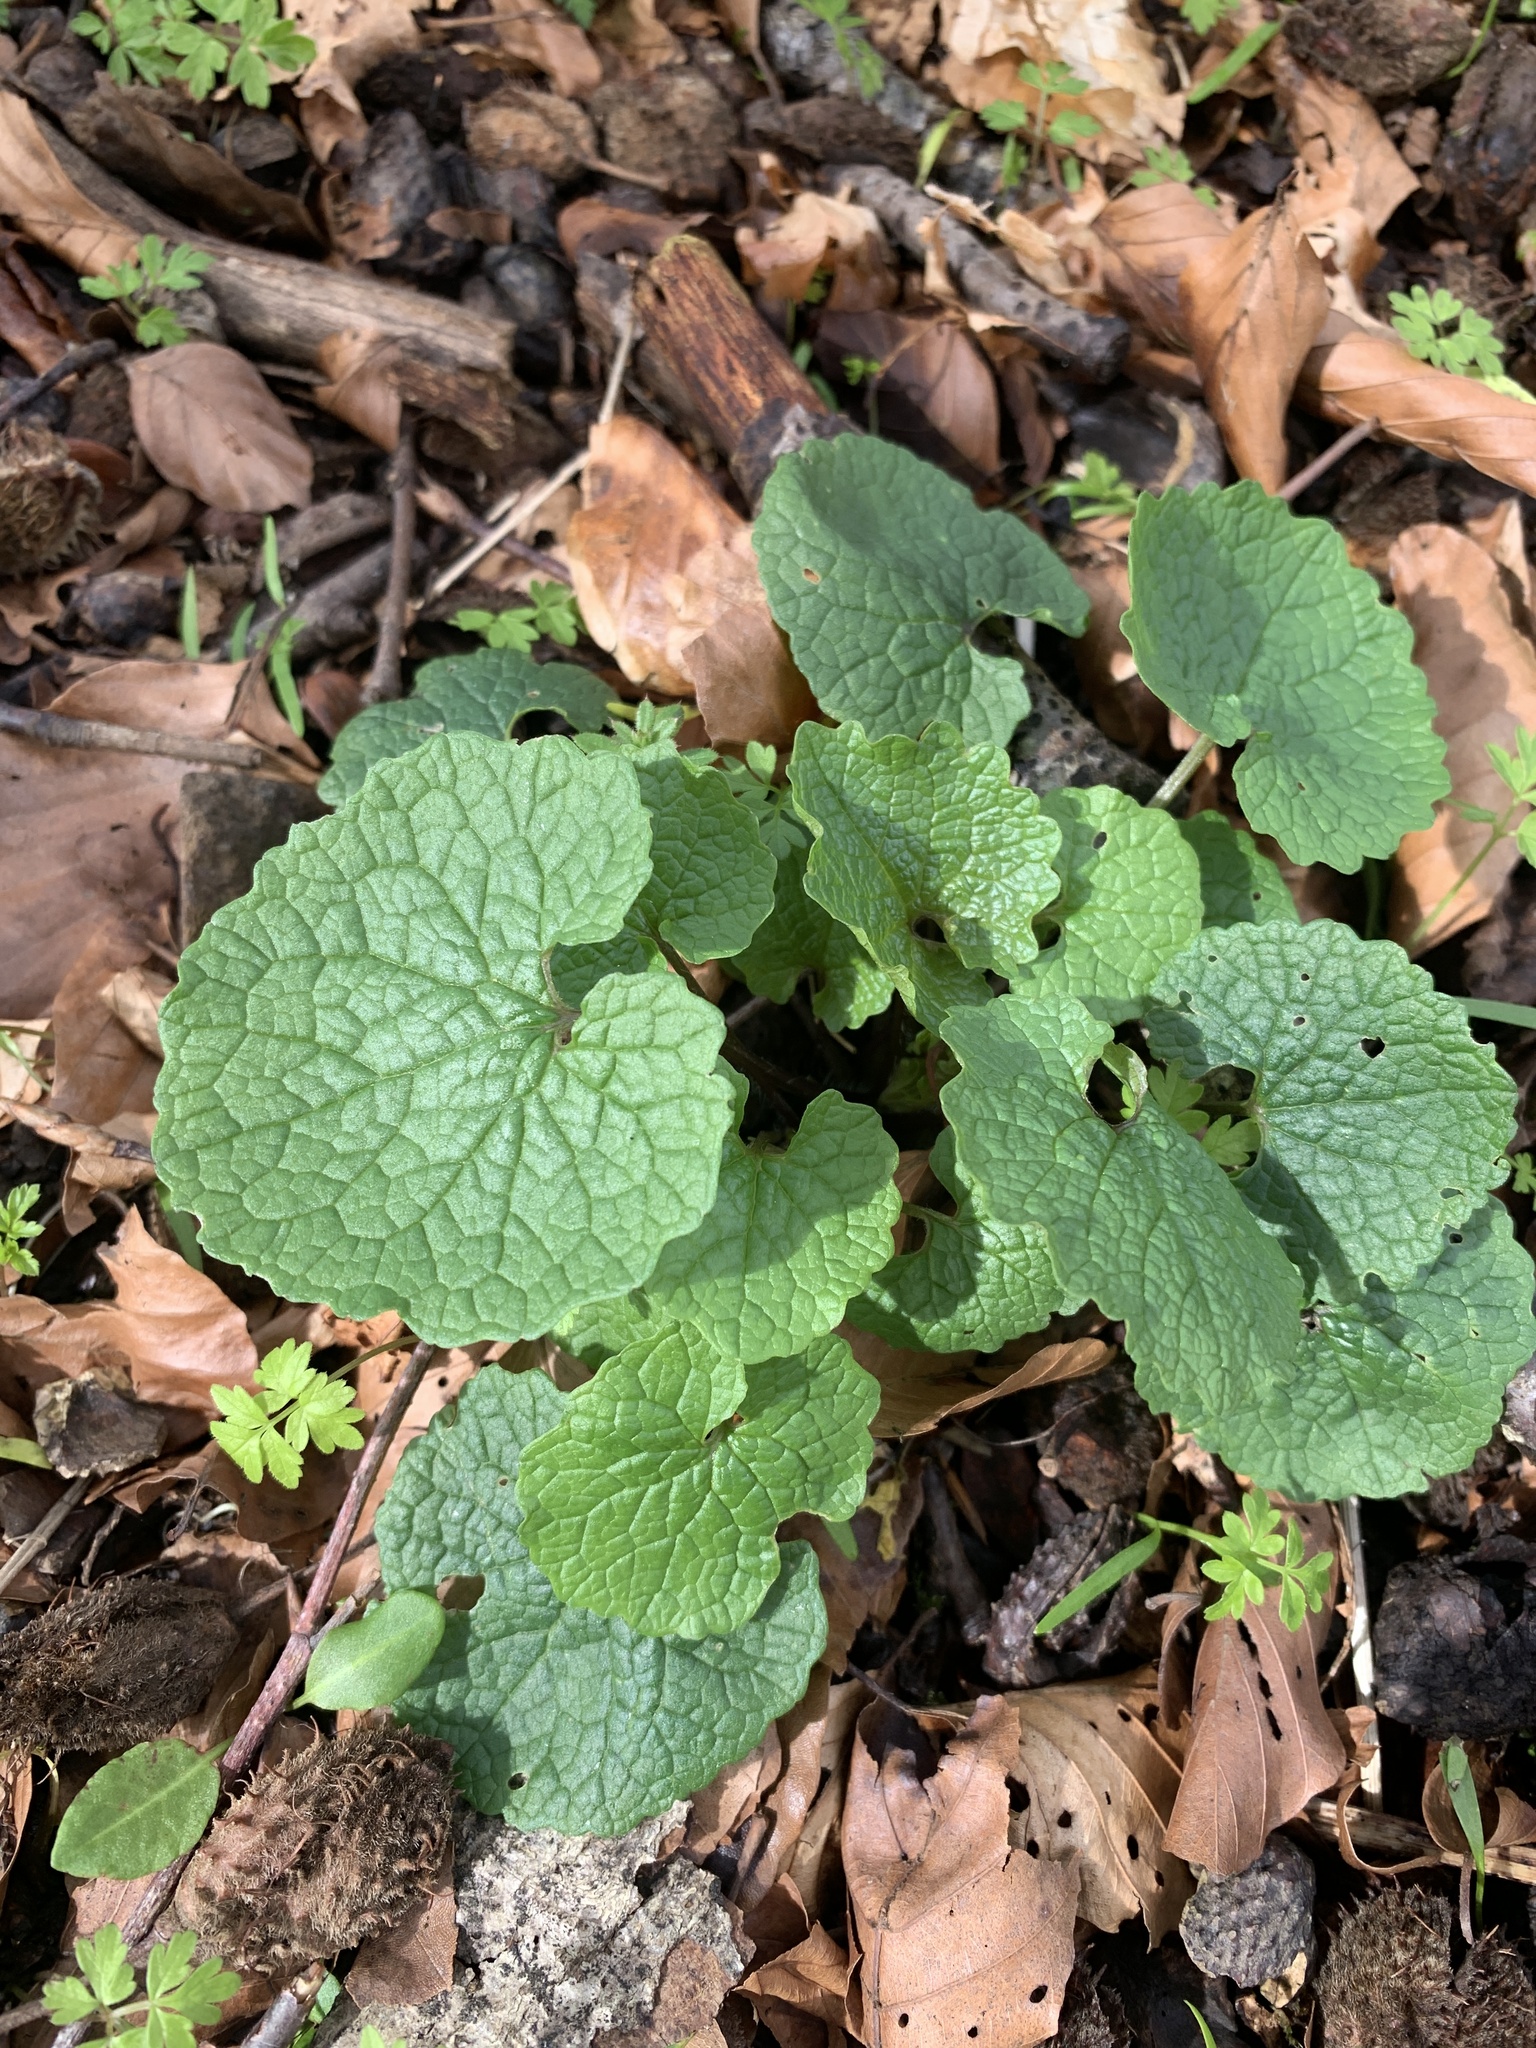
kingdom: Plantae
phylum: Tracheophyta
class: Magnoliopsida
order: Brassicales
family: Brassicaceae
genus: Alliaria
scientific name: Alliaria petiolata
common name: Garlic mustard
